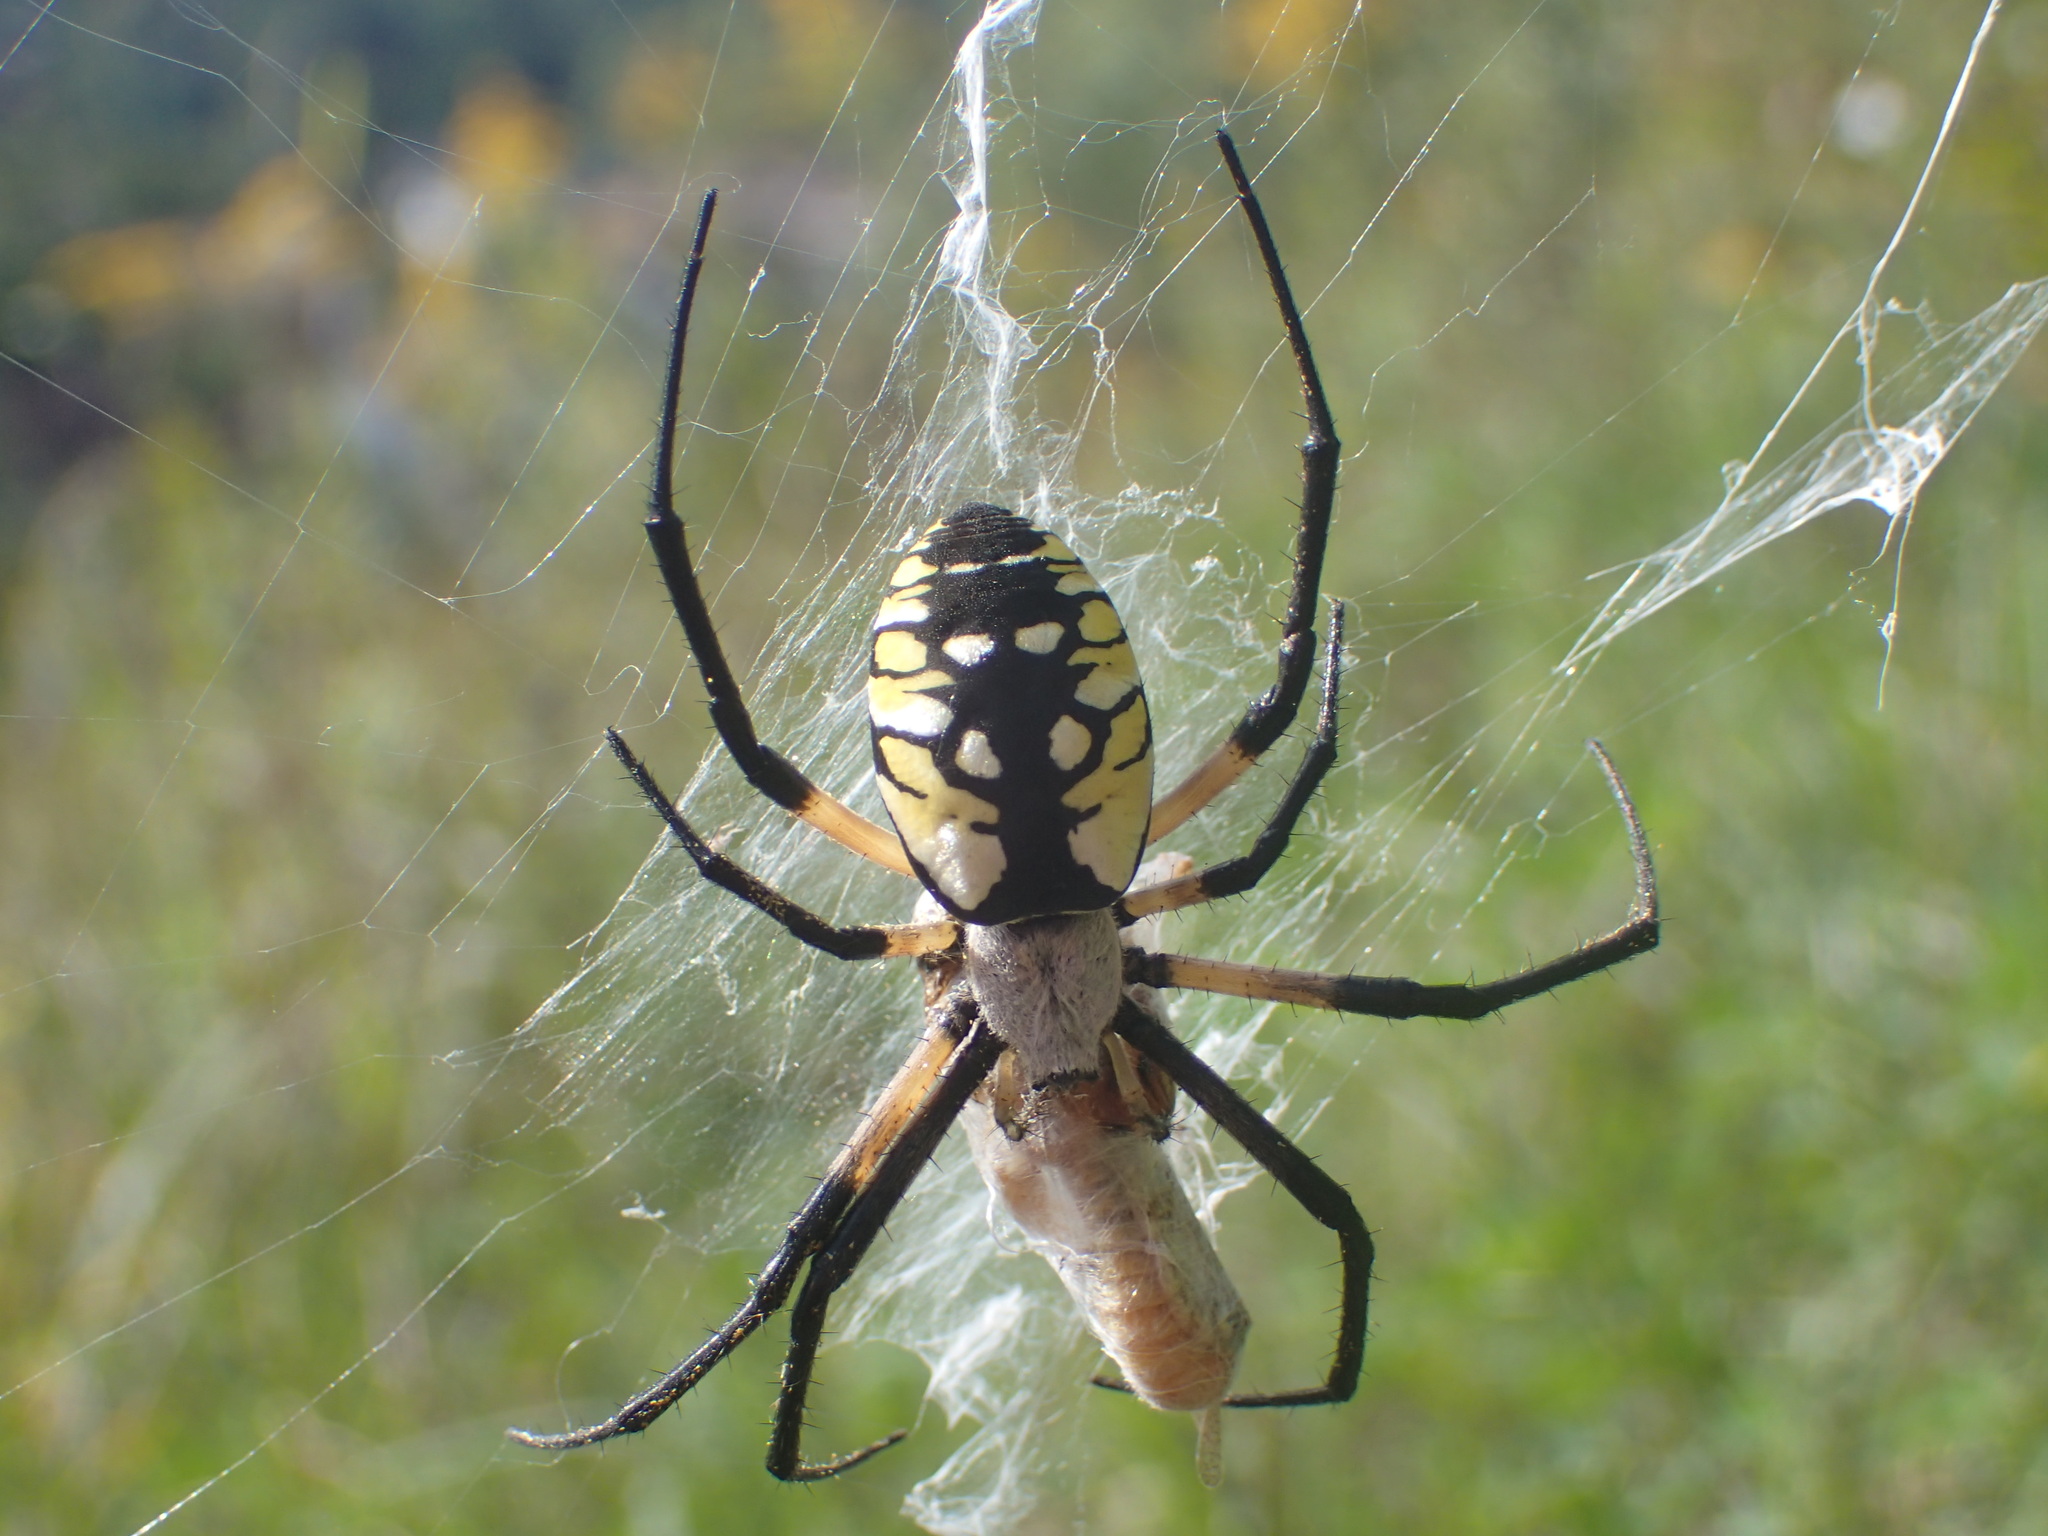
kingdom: Animalia
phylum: Arthropoda
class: Arachnida
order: Araneae
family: Araneidae
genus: Argiope
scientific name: Argiope aurantia
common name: Orb weavers
